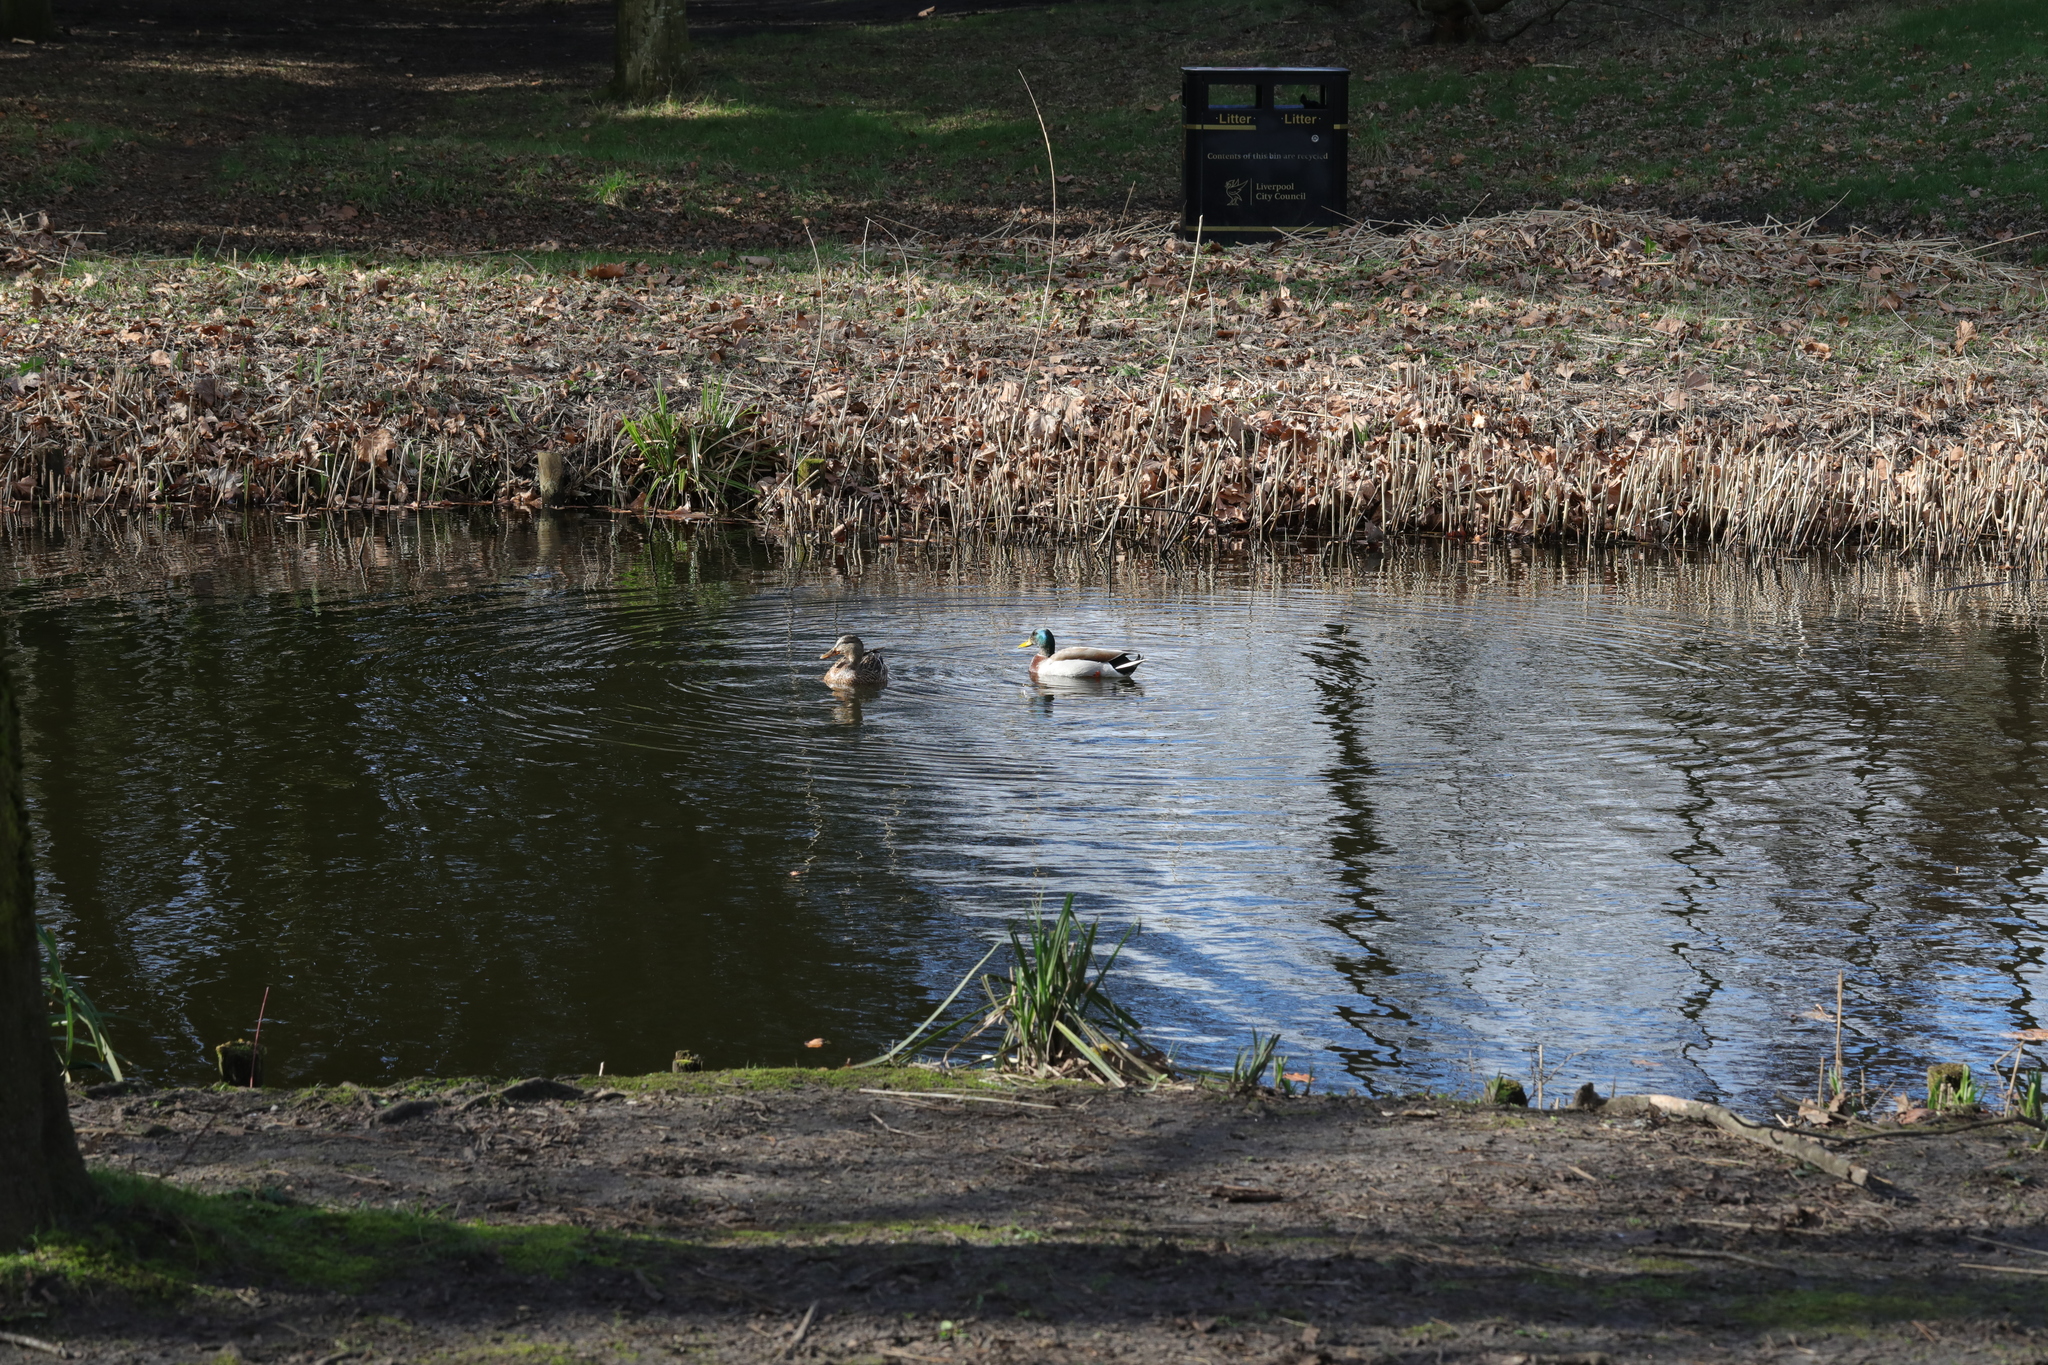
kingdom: Animalia
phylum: Chordata
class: Aves
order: Anseriformes
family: Anatidae
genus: Anas
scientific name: Anas platyrhynchos
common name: Mallard
